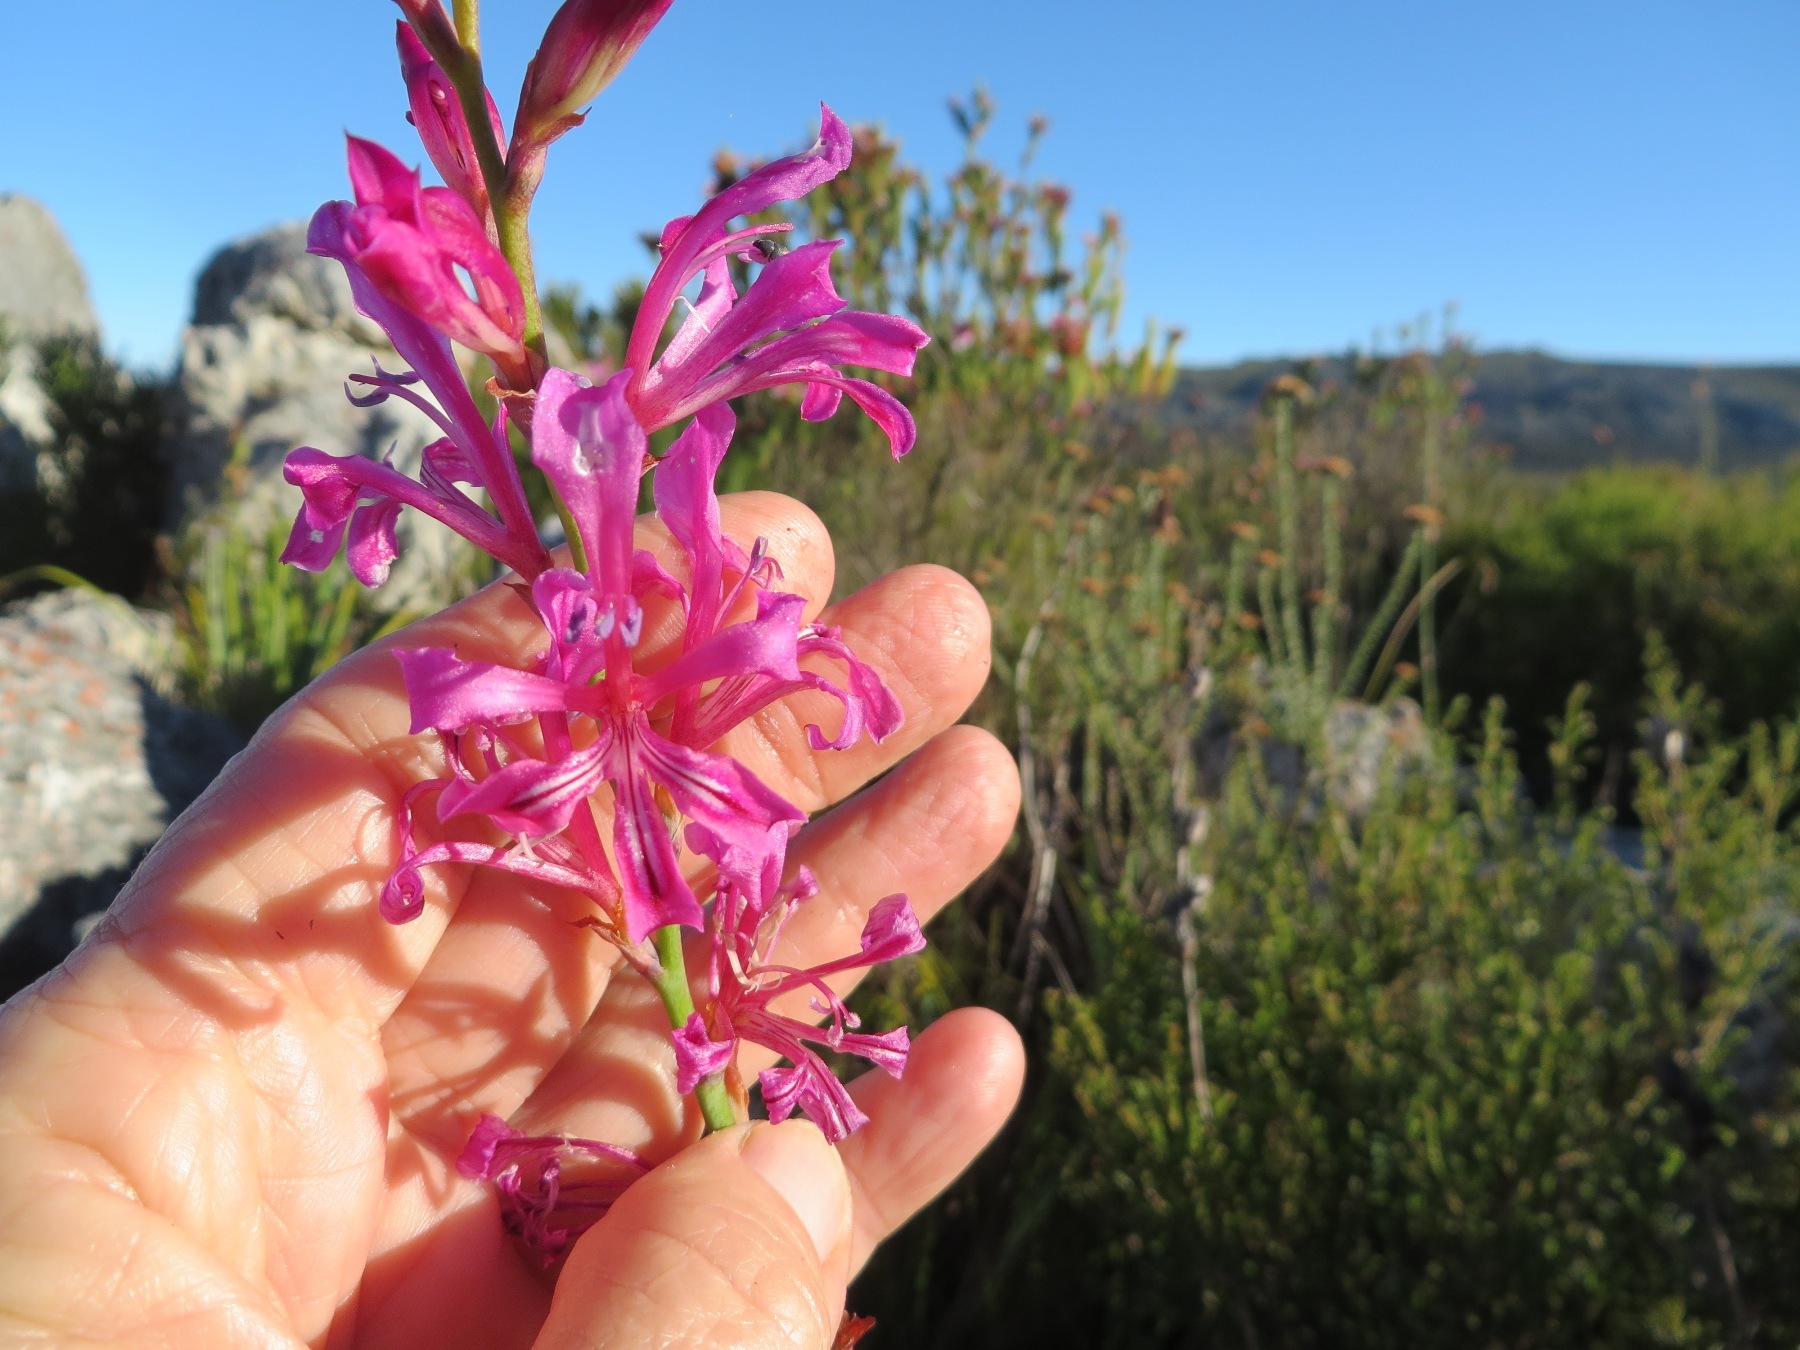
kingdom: Plantae
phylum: Tracheophyta
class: Liliopsida
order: Asparagales
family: Iridaceae
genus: Tritoniopsis
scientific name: Tritoniopsis lata
